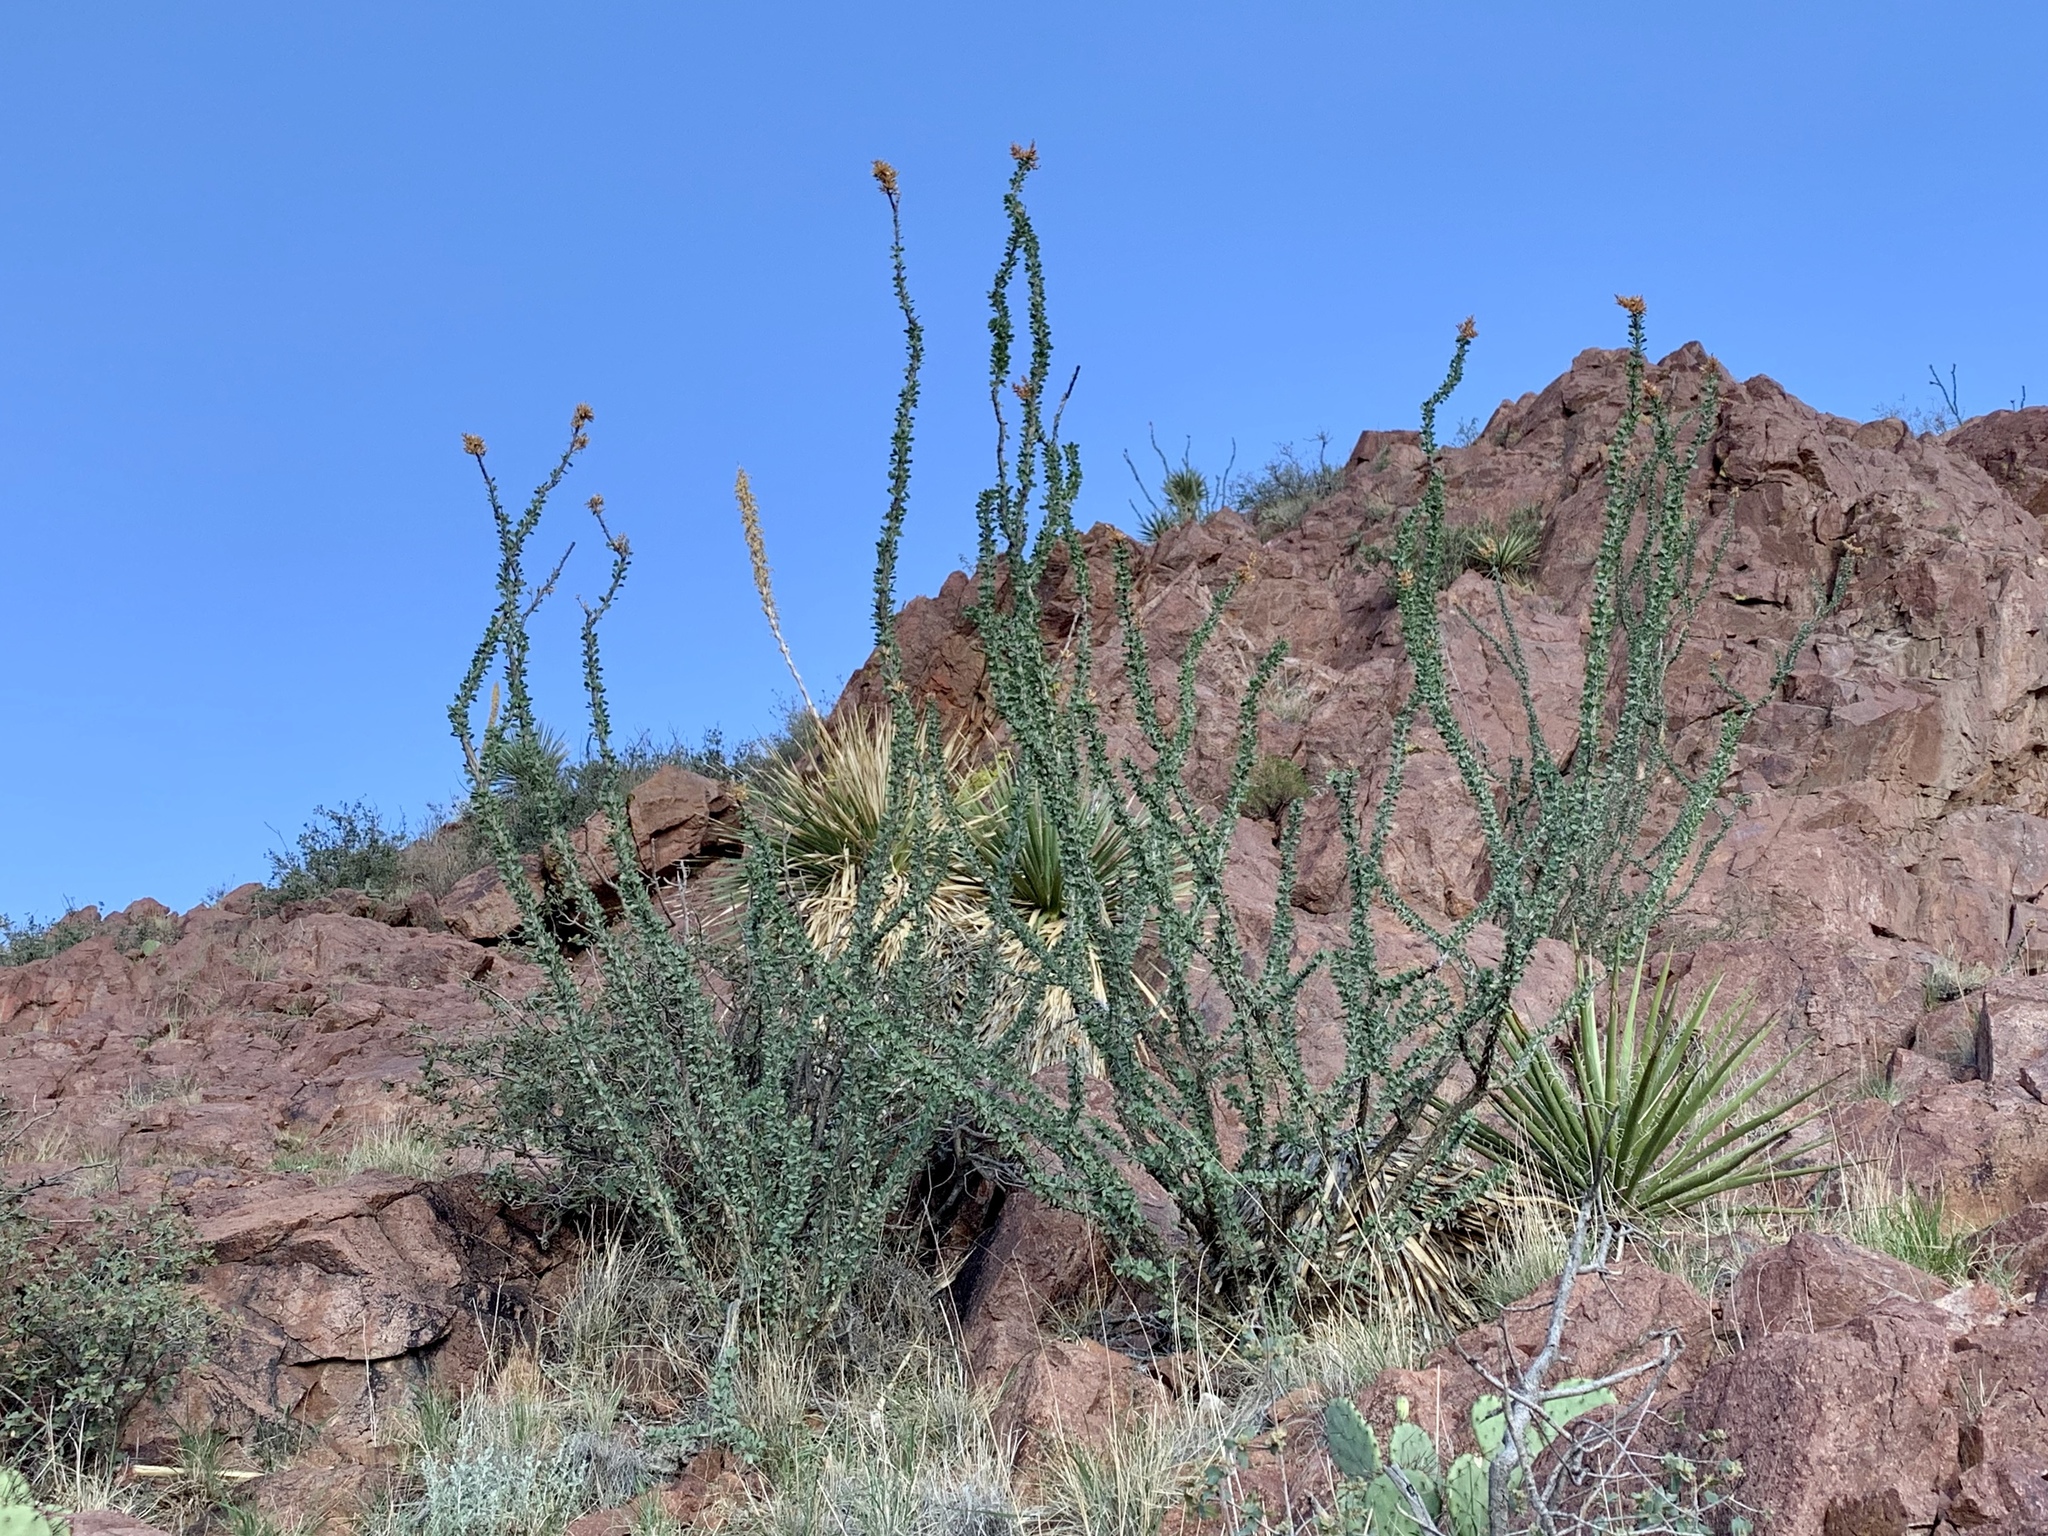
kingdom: Plantae
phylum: Tracheophyta
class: Magnoliopsida
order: Ericales
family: Fouquieriaceae
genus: Fouquieria
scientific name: Fouquieria splendens
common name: Vine-cactus
